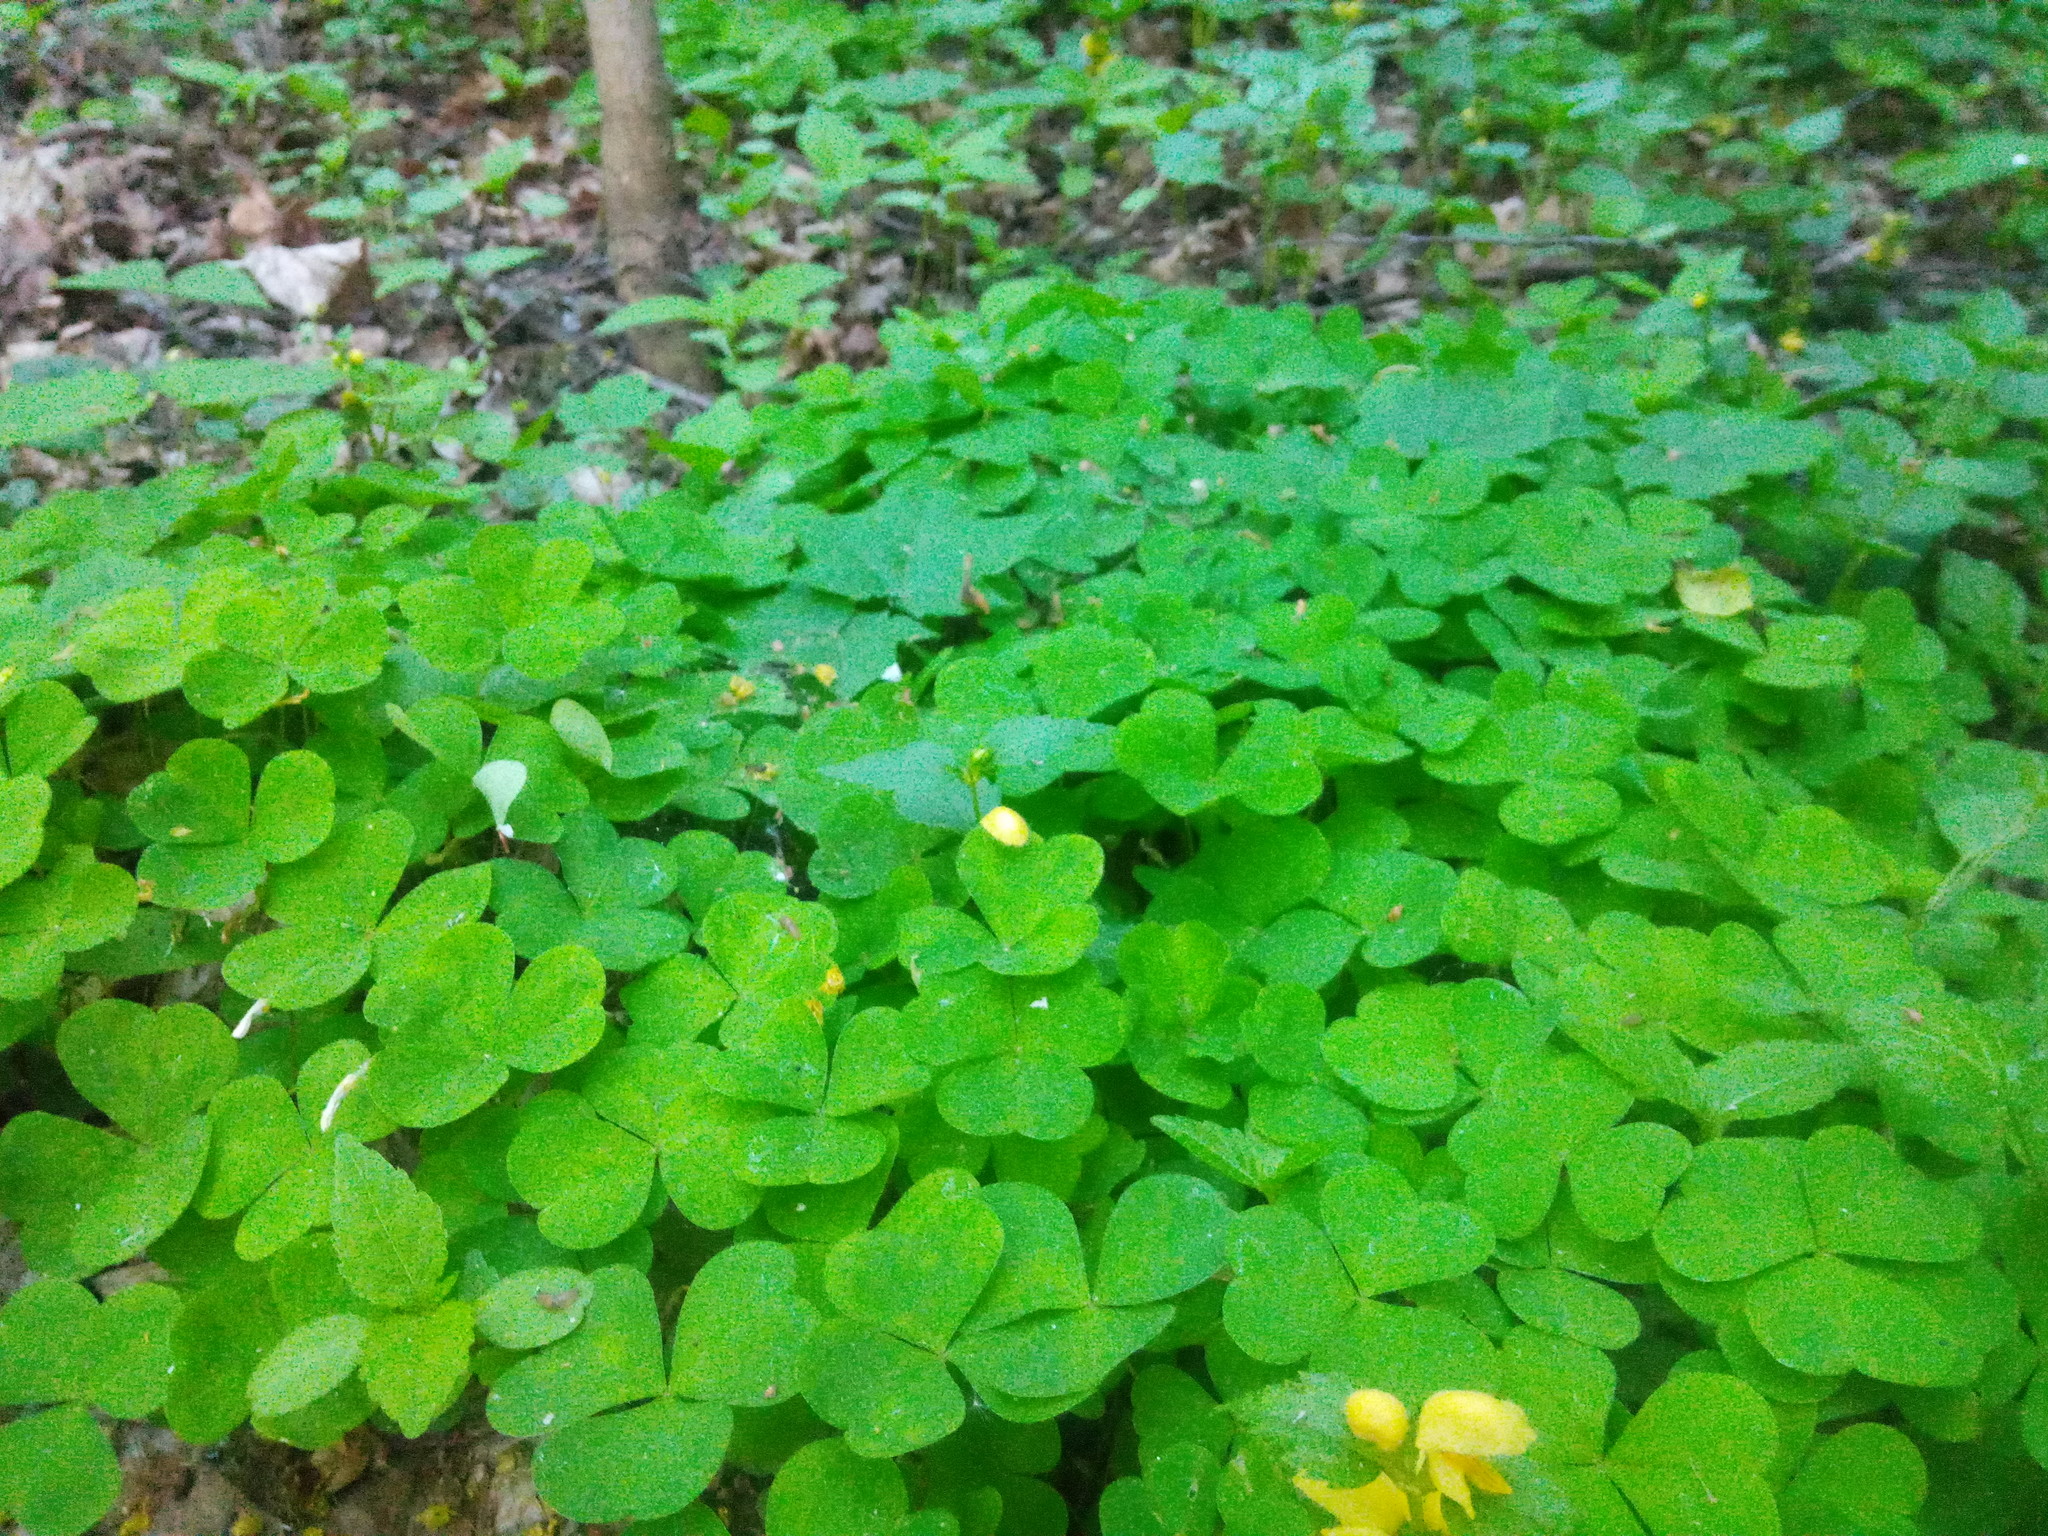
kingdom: Plantae
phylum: Tracheophyta
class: Magnoliopsida
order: Oxalidales
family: Oxalidaceae
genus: Oxalis
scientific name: Oxalis acetosella
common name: Wood-sorrel
